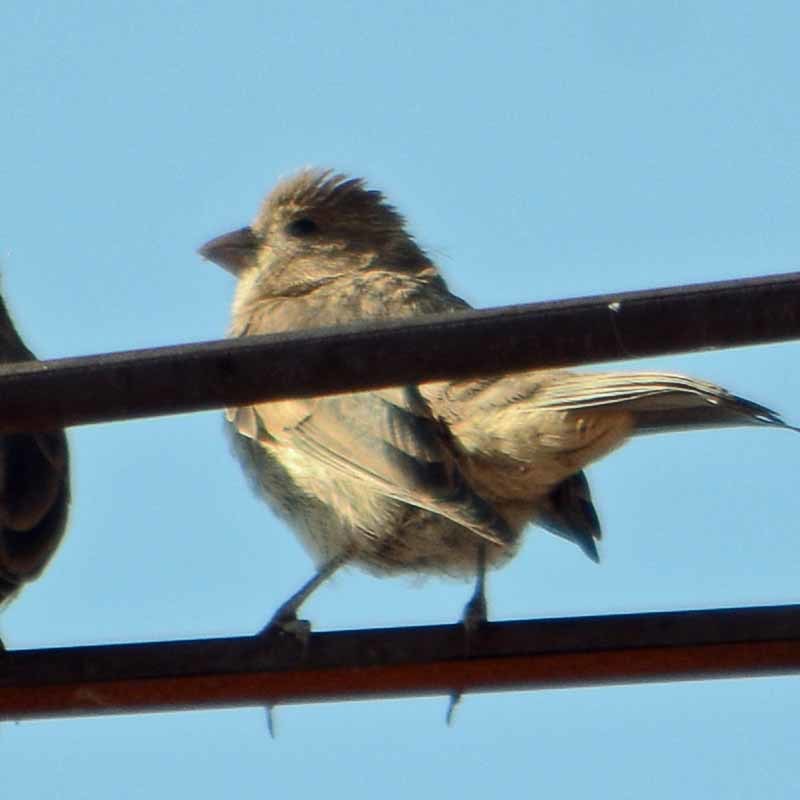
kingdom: Animalia
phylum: Chordata
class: Aves
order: Passeriformes
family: Fringillidae
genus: Haemorhous
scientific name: Haemorhous mexicanus
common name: House finch
